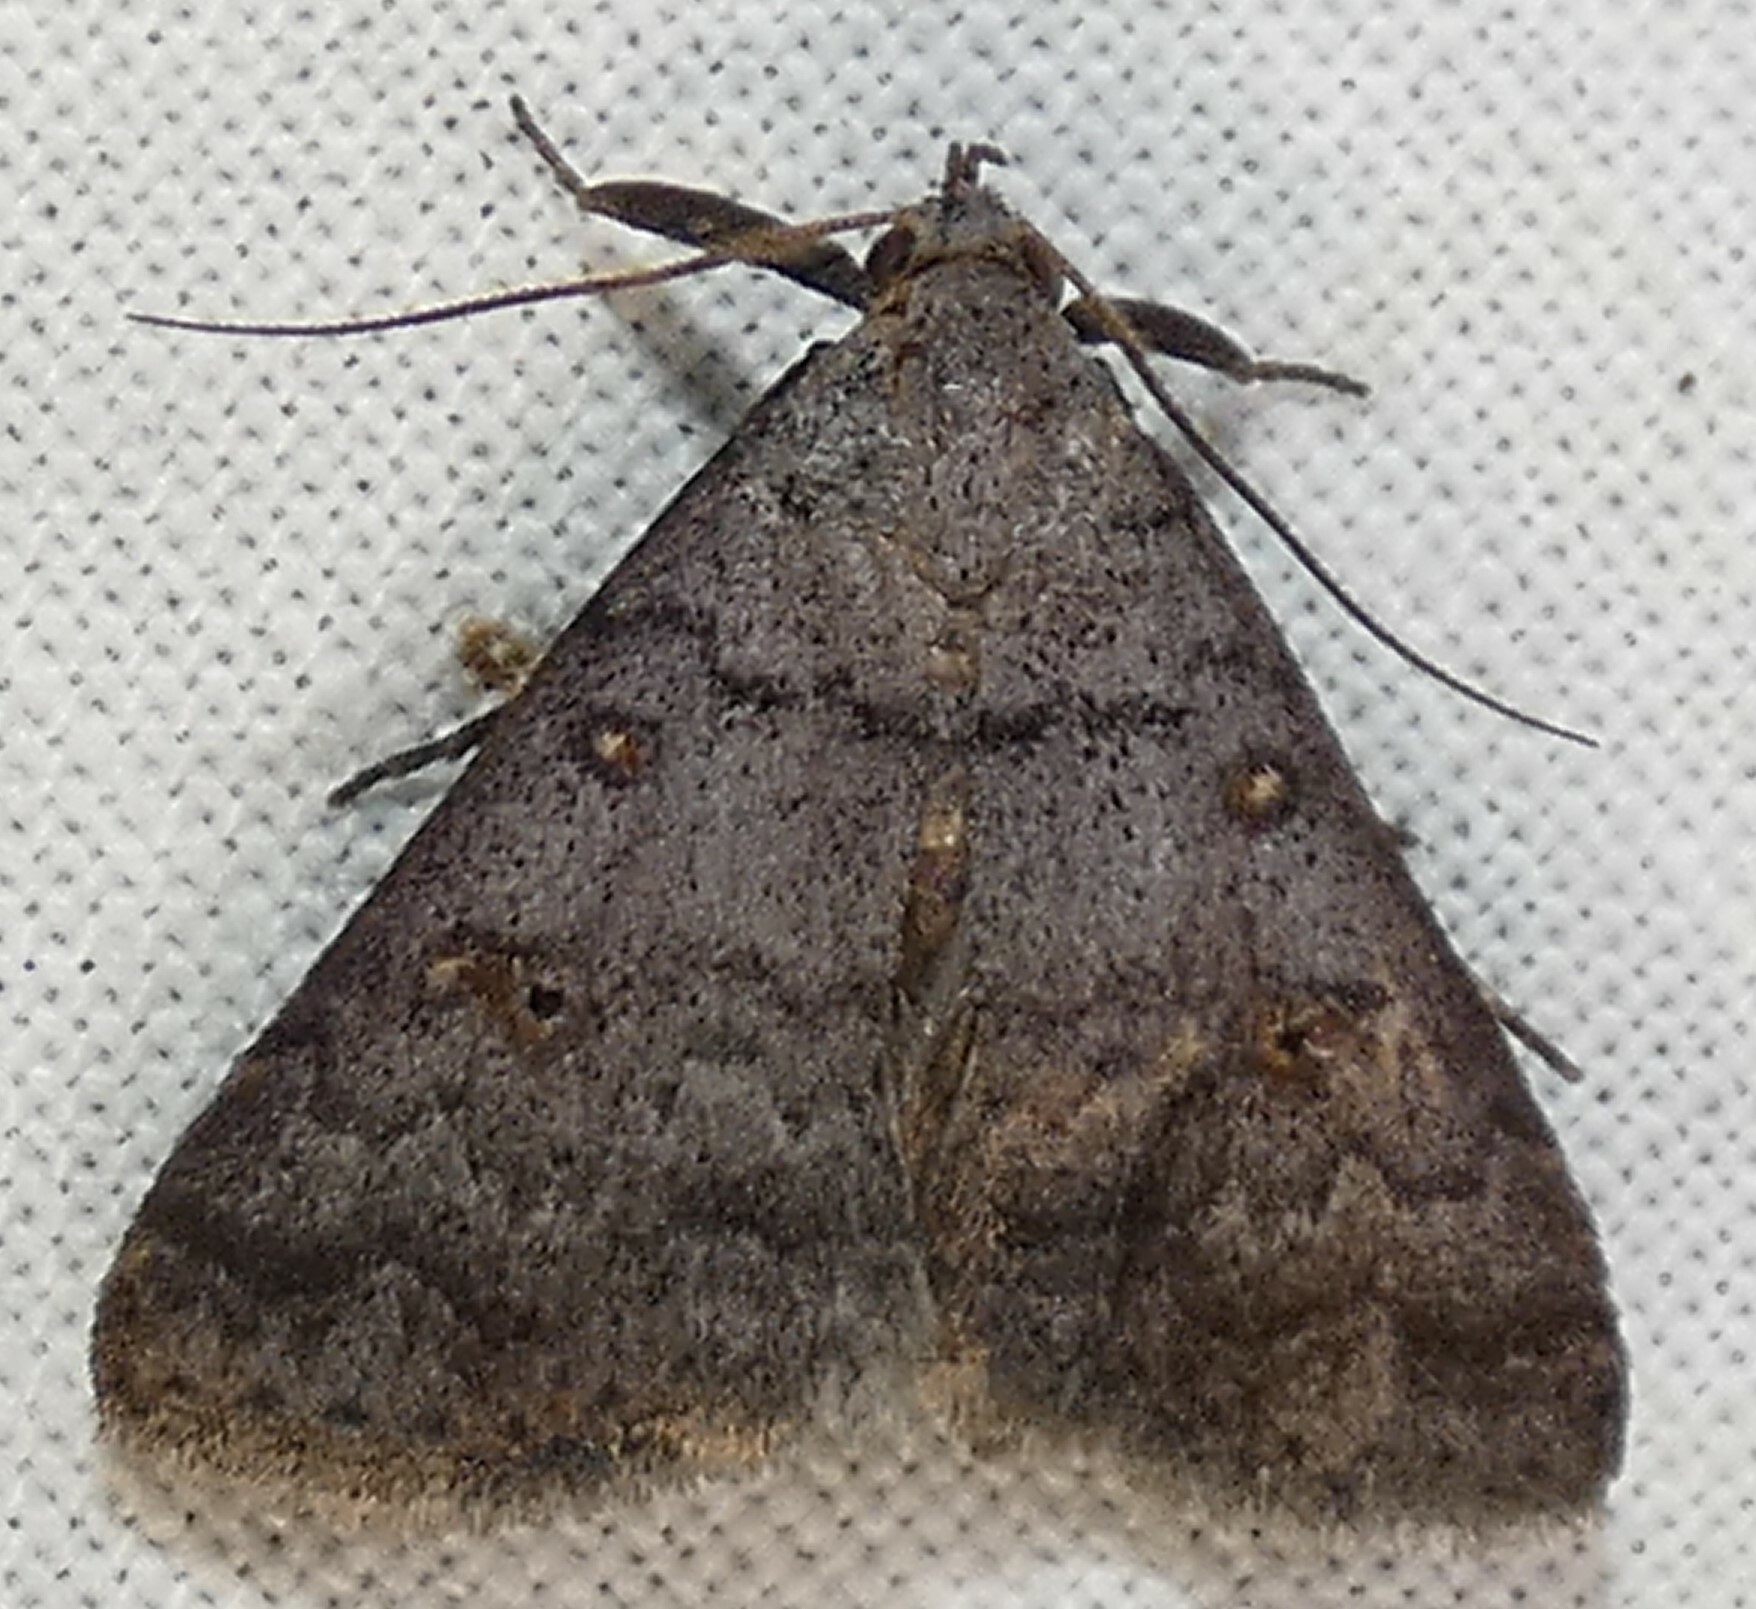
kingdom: Animalia
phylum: Arthropoda
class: Insecta
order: Lepidoptera
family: Erebidae
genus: Bleptina
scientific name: Bleptina sangamonia
